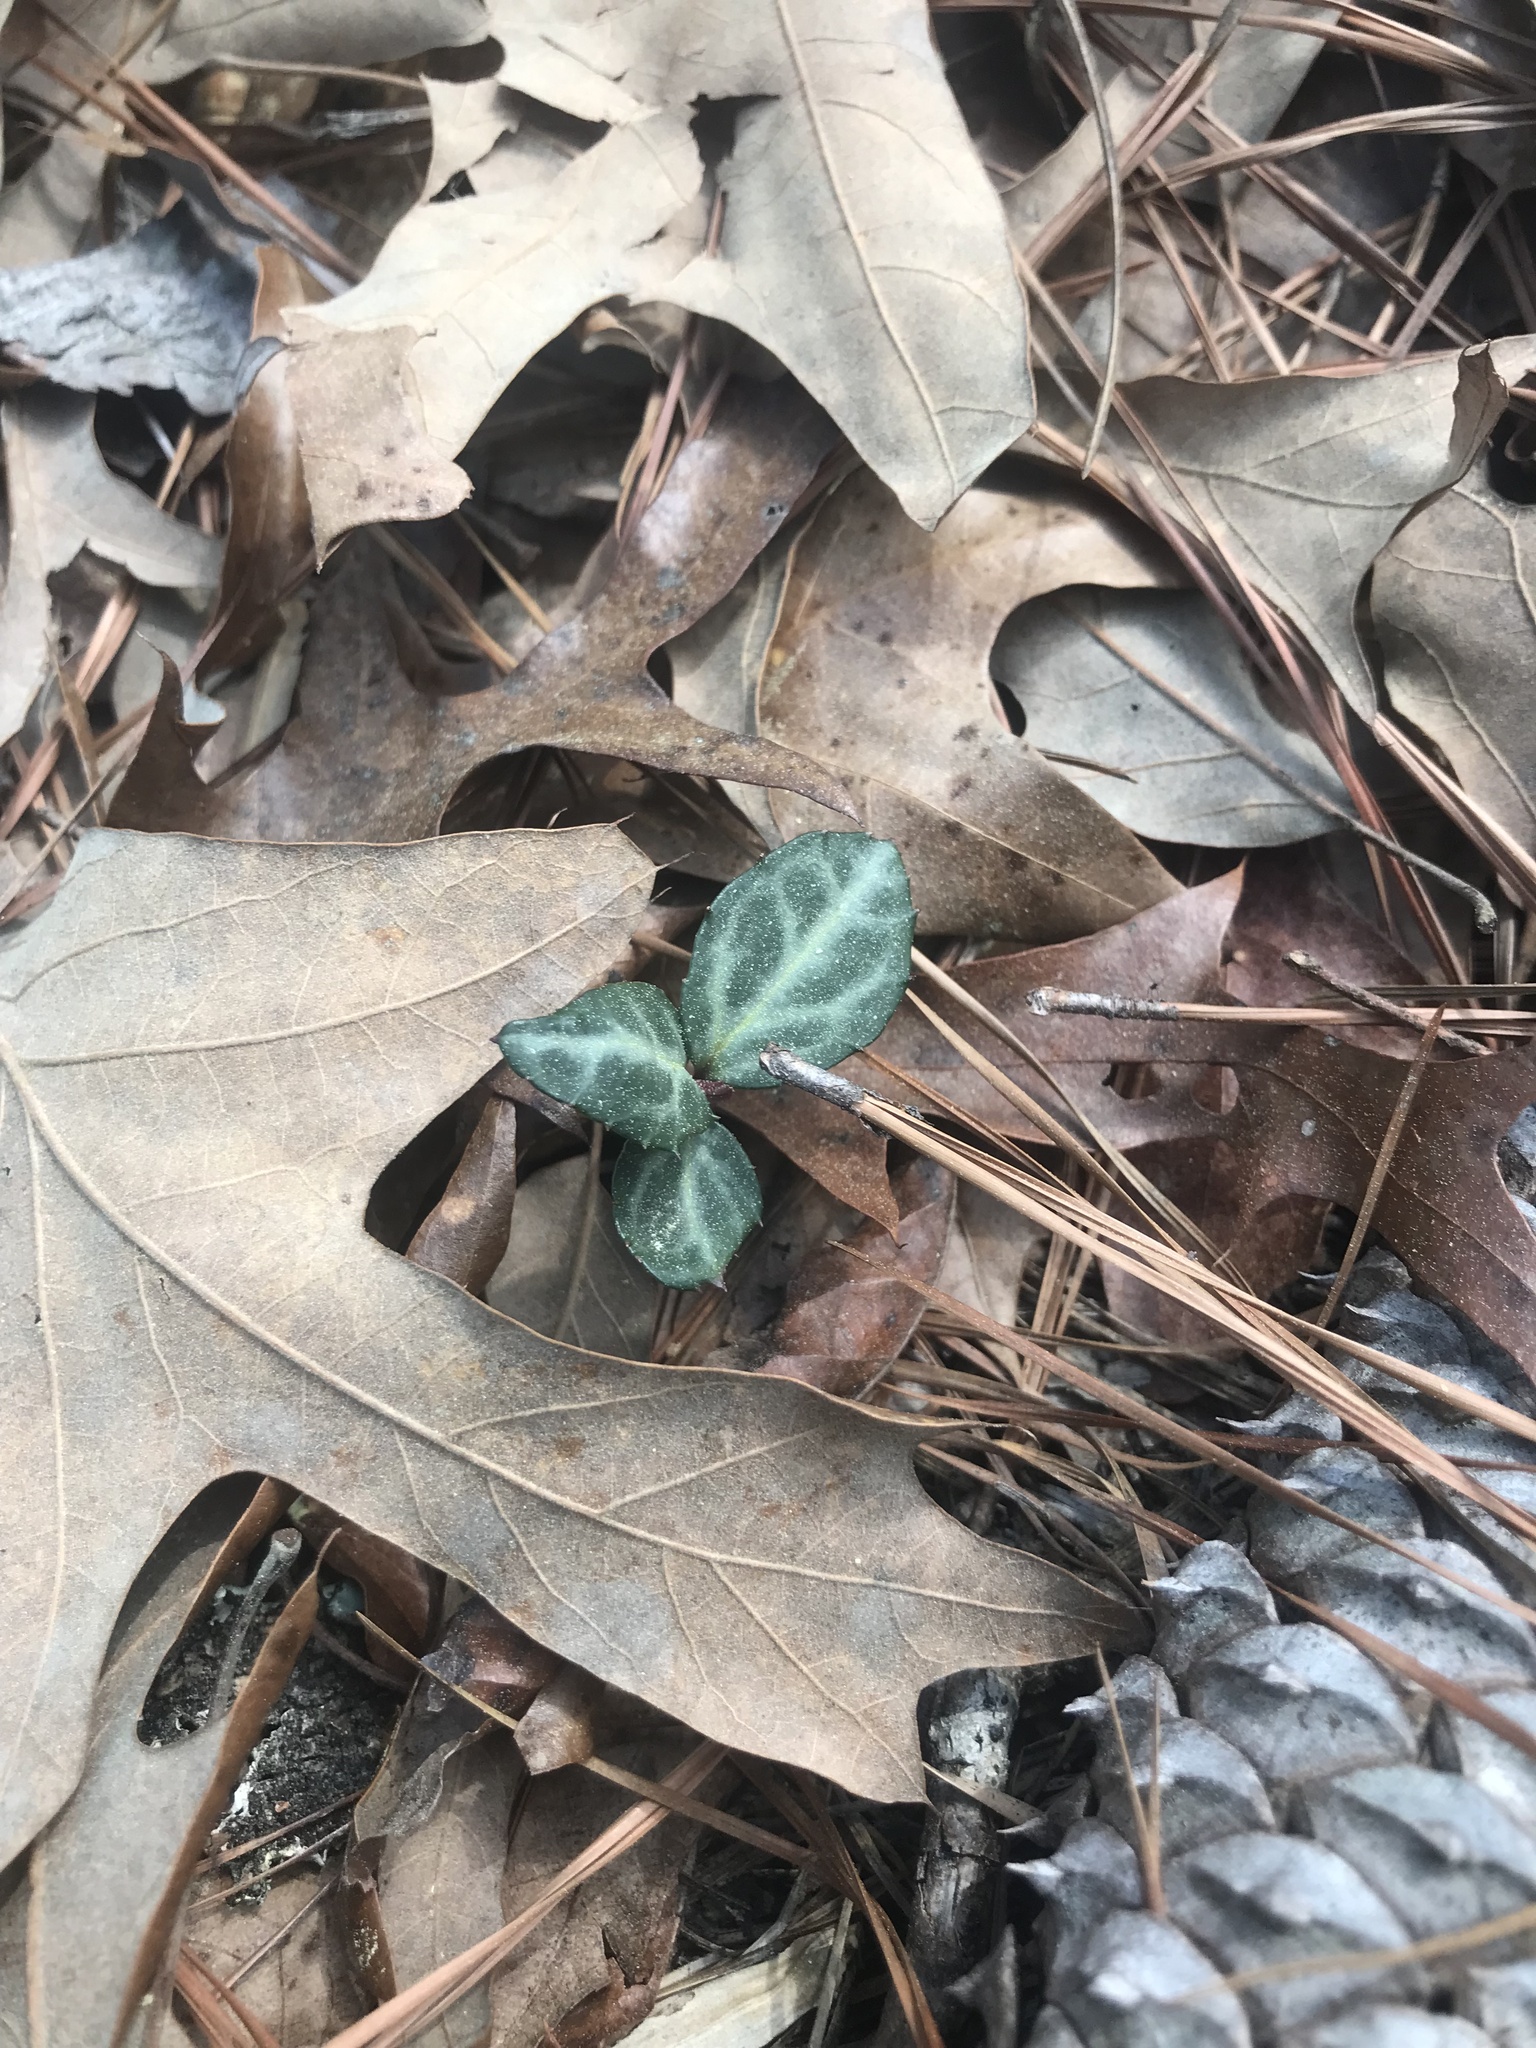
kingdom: Plantae
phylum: Tracheophyta
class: Magnoliopsida
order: Ericales
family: Ericaceae
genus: Chimaphila
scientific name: Chimaphila maculata
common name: Spotted pipsissewa
